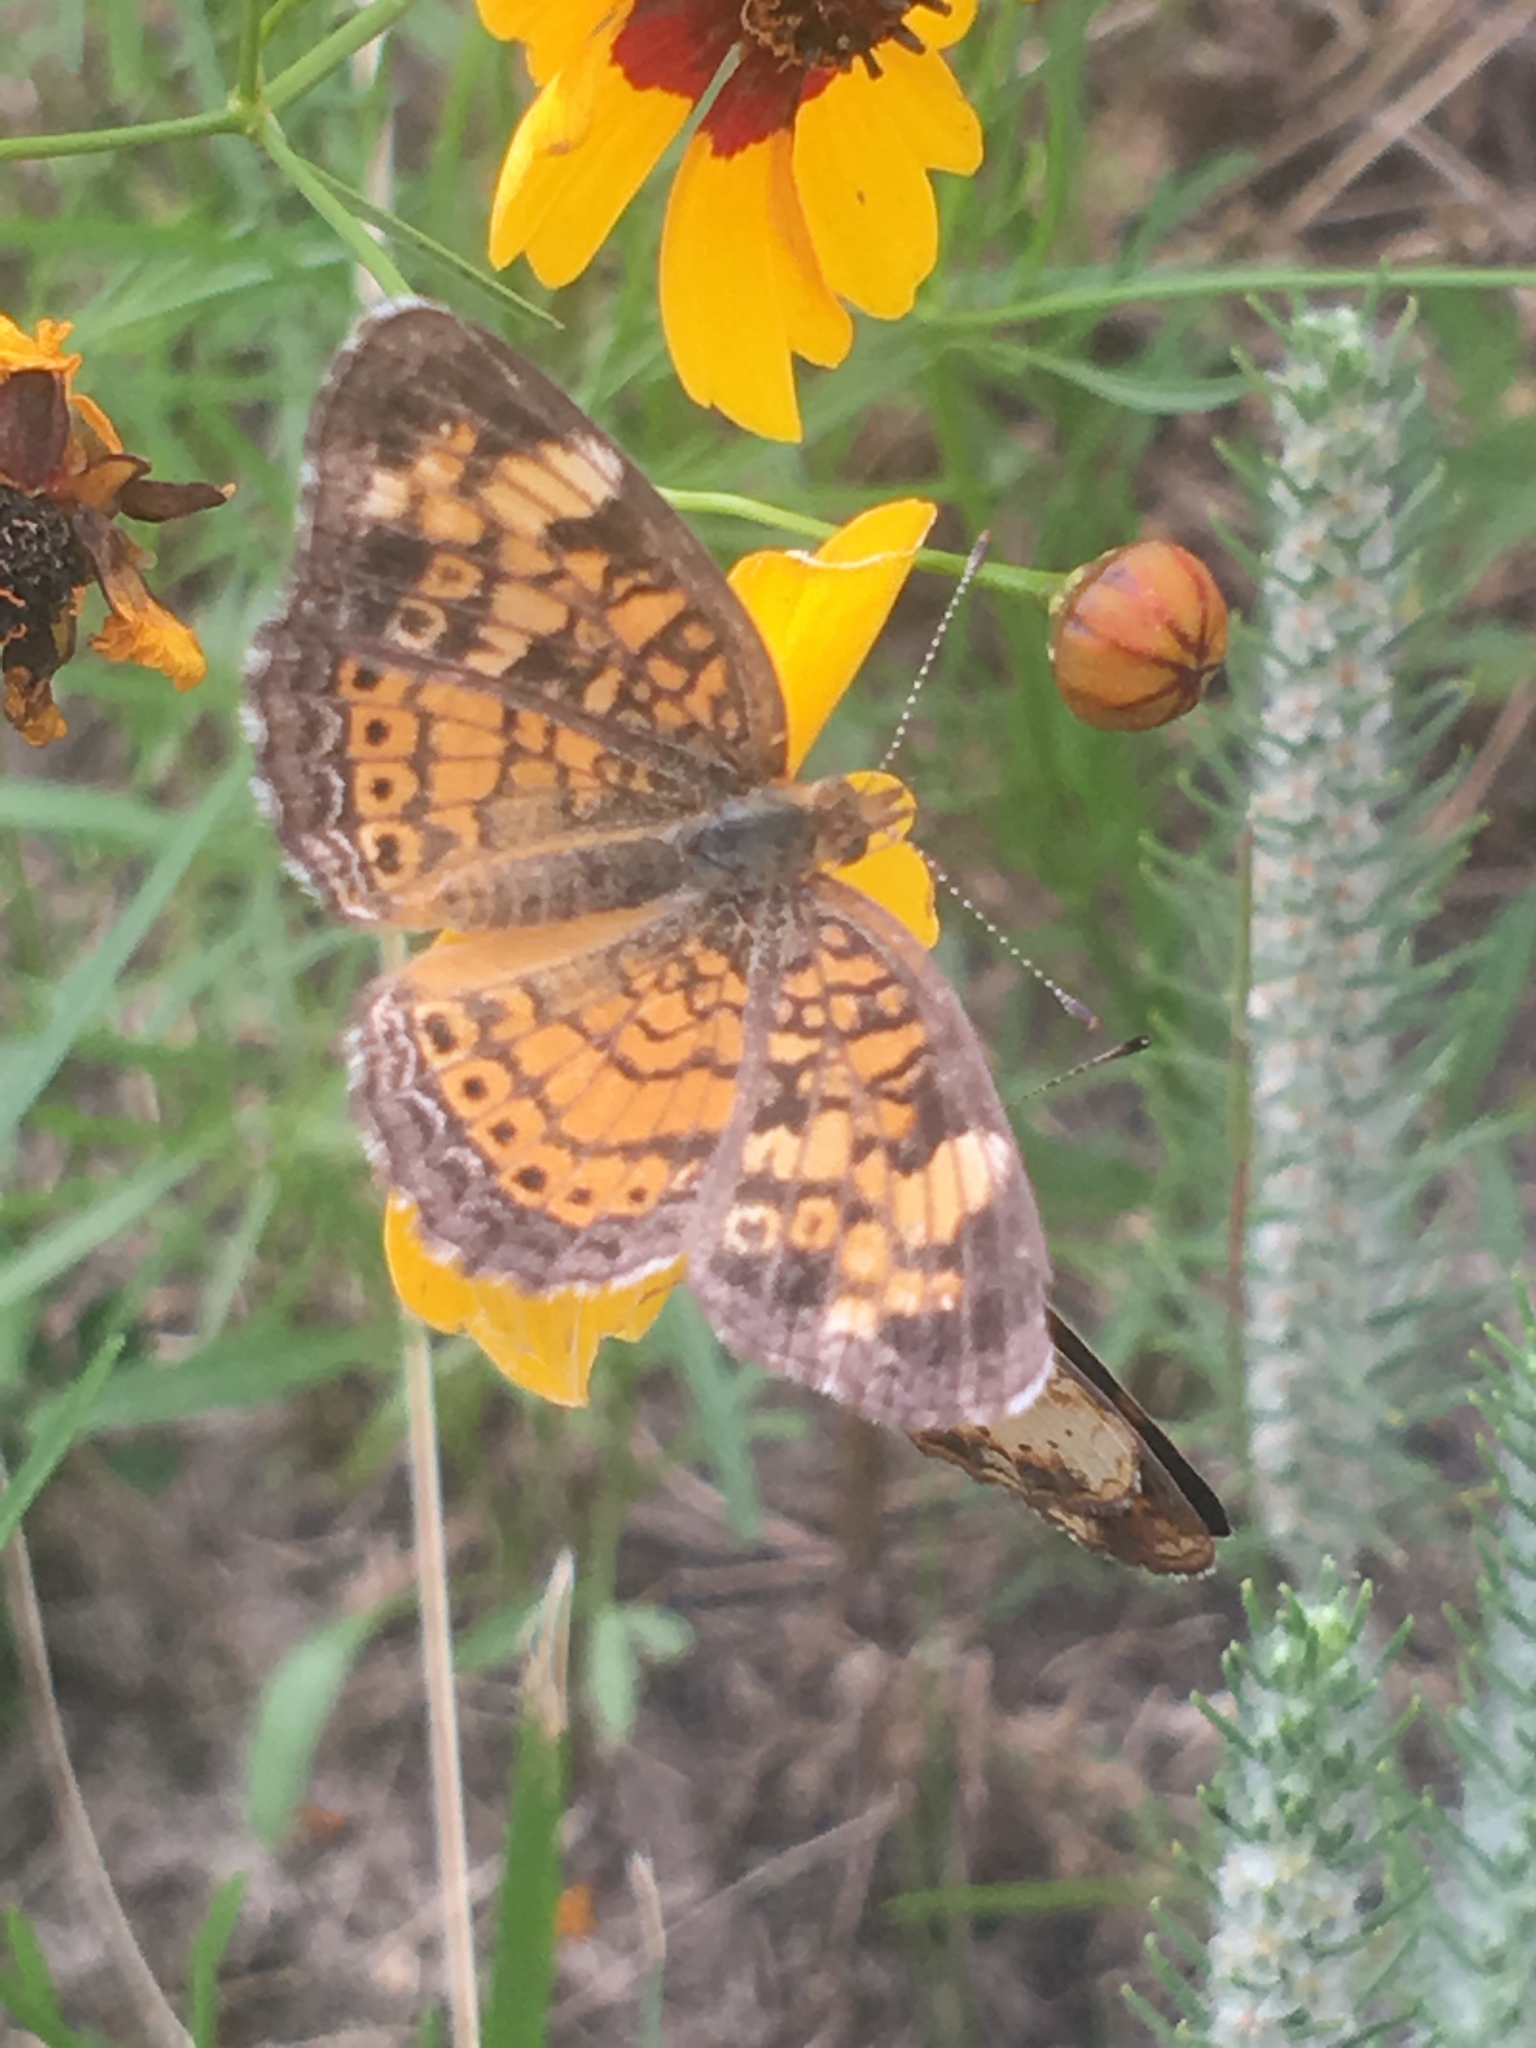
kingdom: Animalia
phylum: Arthropoda
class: Insecta
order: Lepidoptera
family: Nymphalidae
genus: Phyciodes
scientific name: Phyciodes tharos
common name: Pearl crescent
